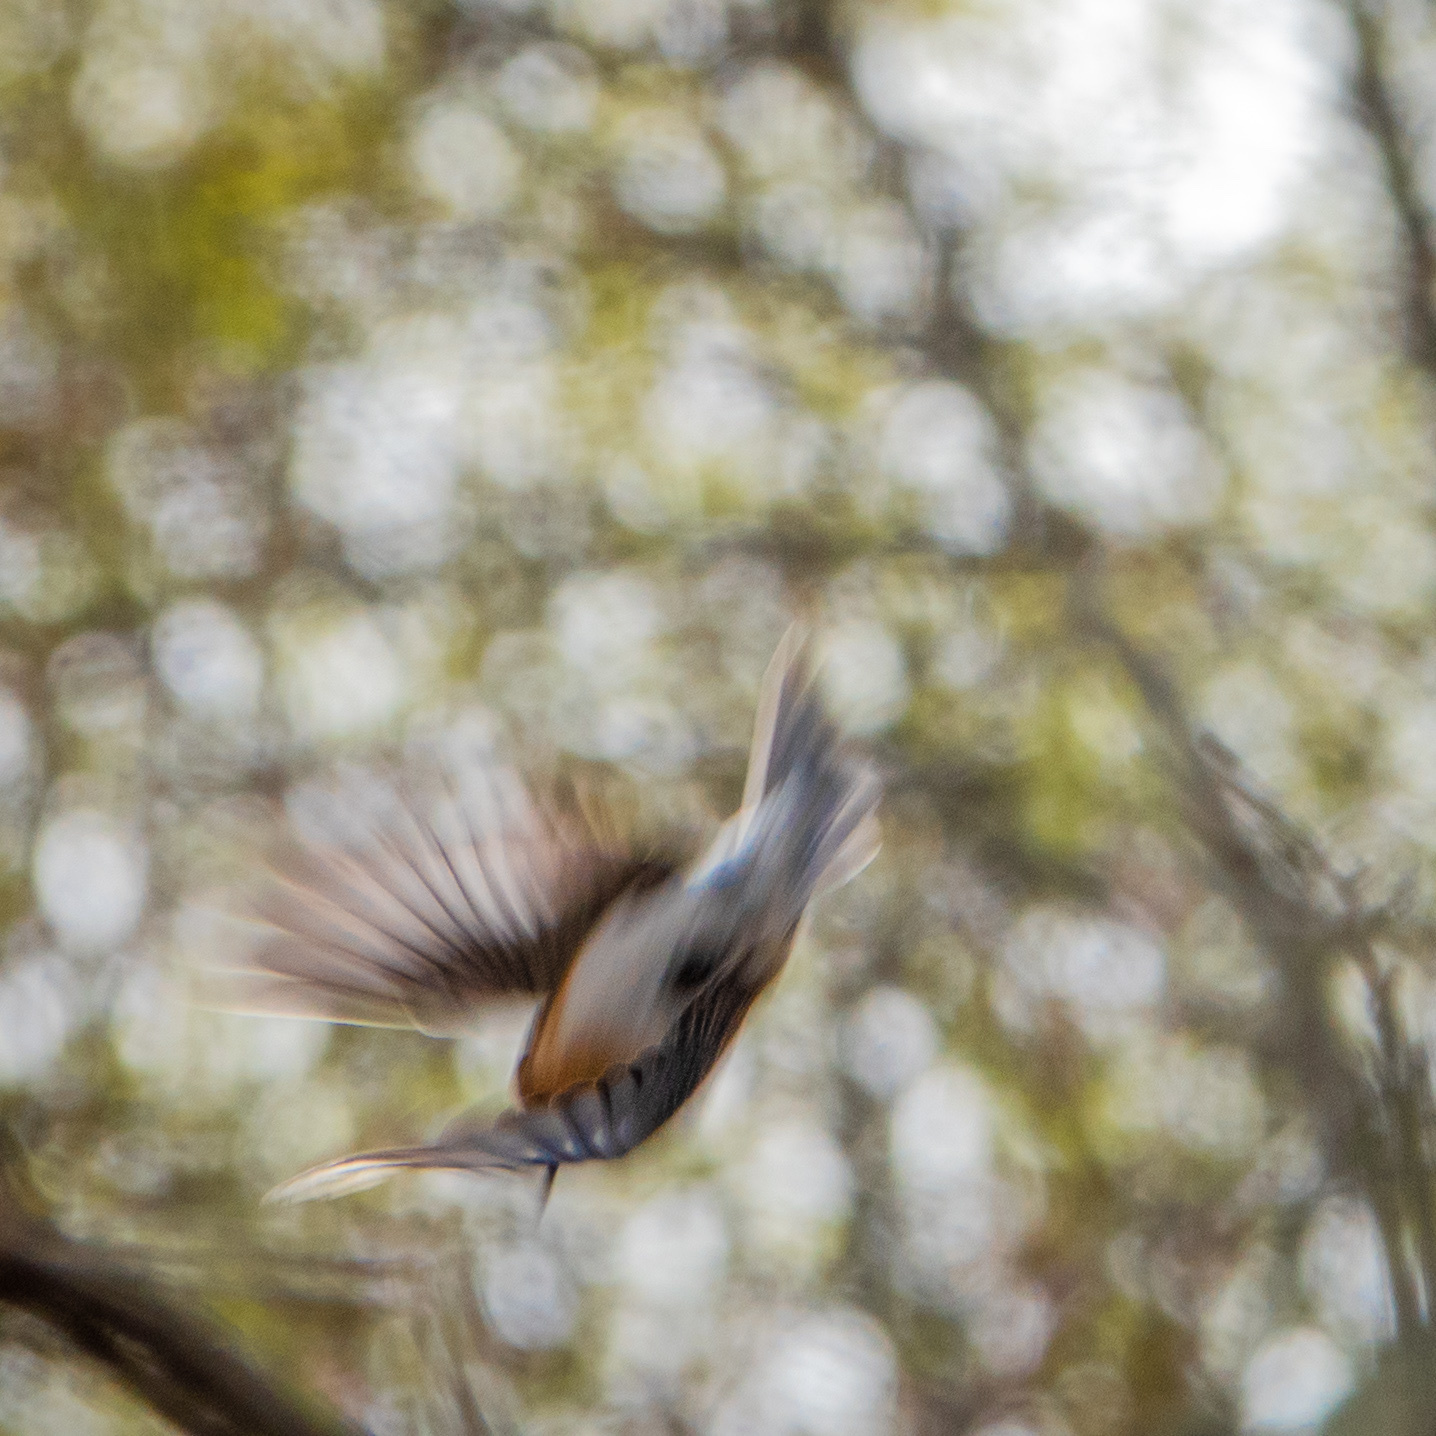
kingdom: Animalia
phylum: Chordata
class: Aves
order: Passeriformes
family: Turdidae
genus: Sialia
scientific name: Sialia sialis
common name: Eastern bluebird
